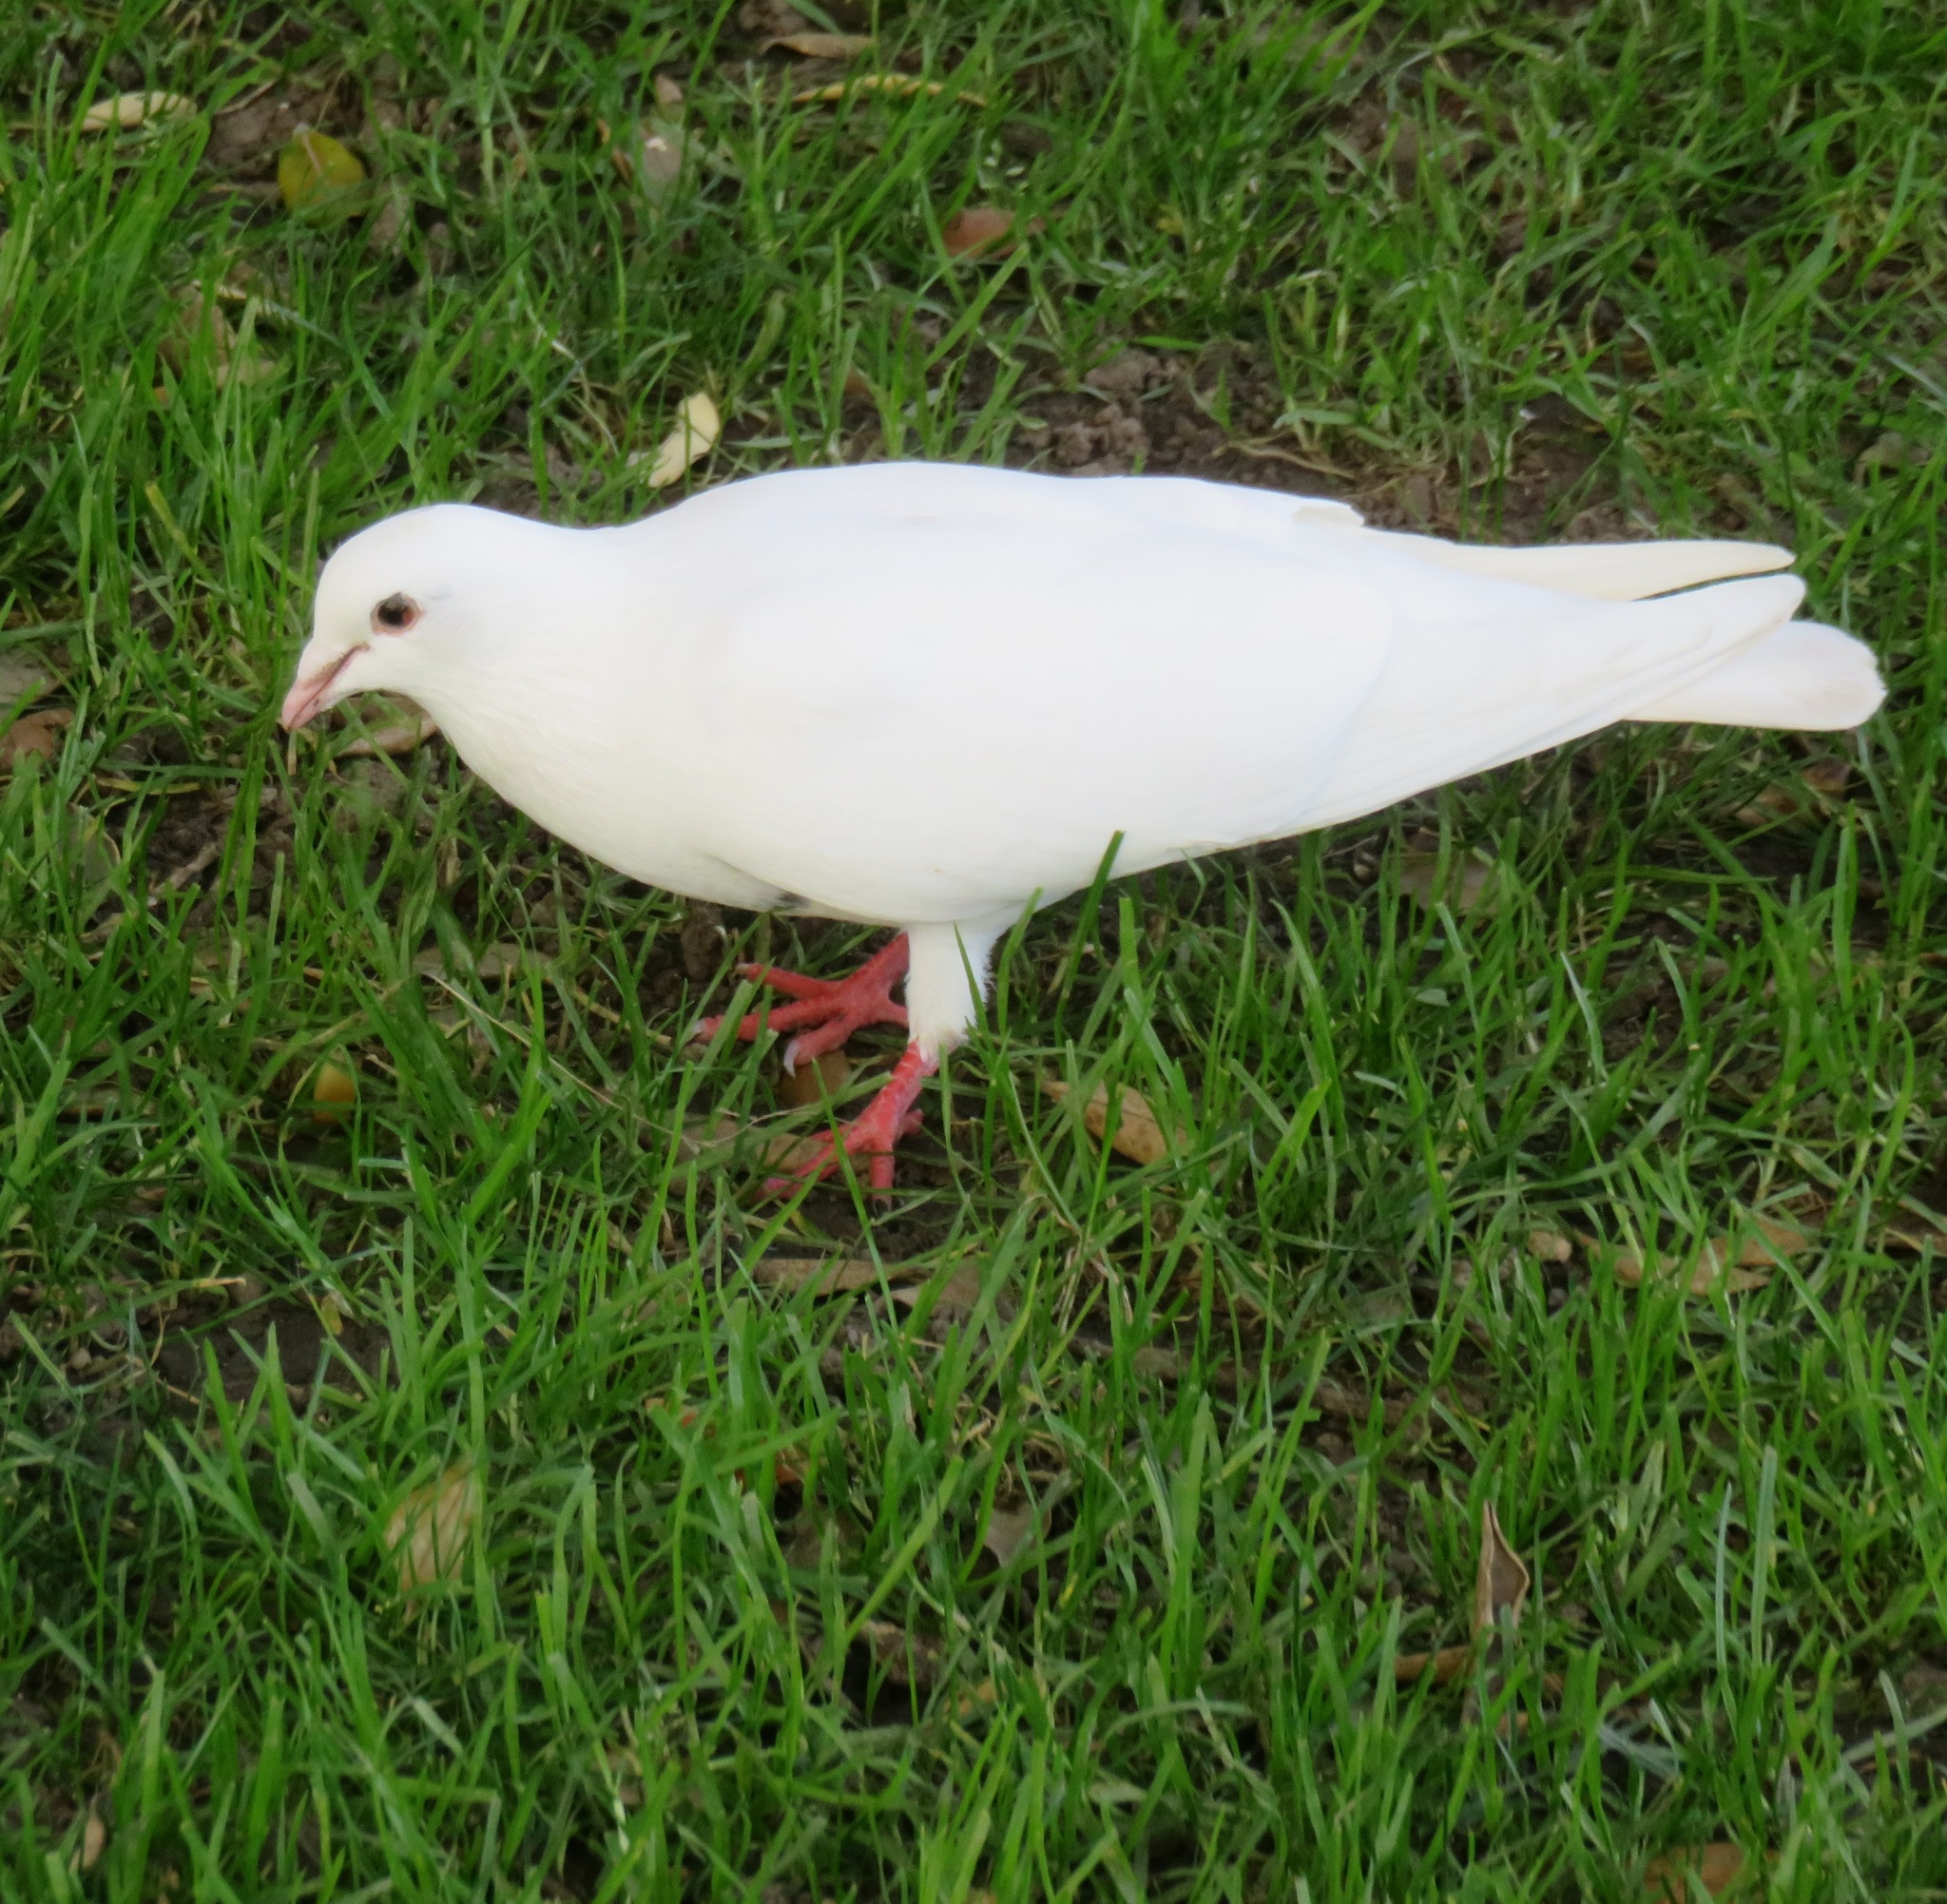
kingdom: Animalia
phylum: Chordata
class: Aves
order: Columbiformes
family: Columbidae
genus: Columba
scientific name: Columba livia
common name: Rock pigeon
